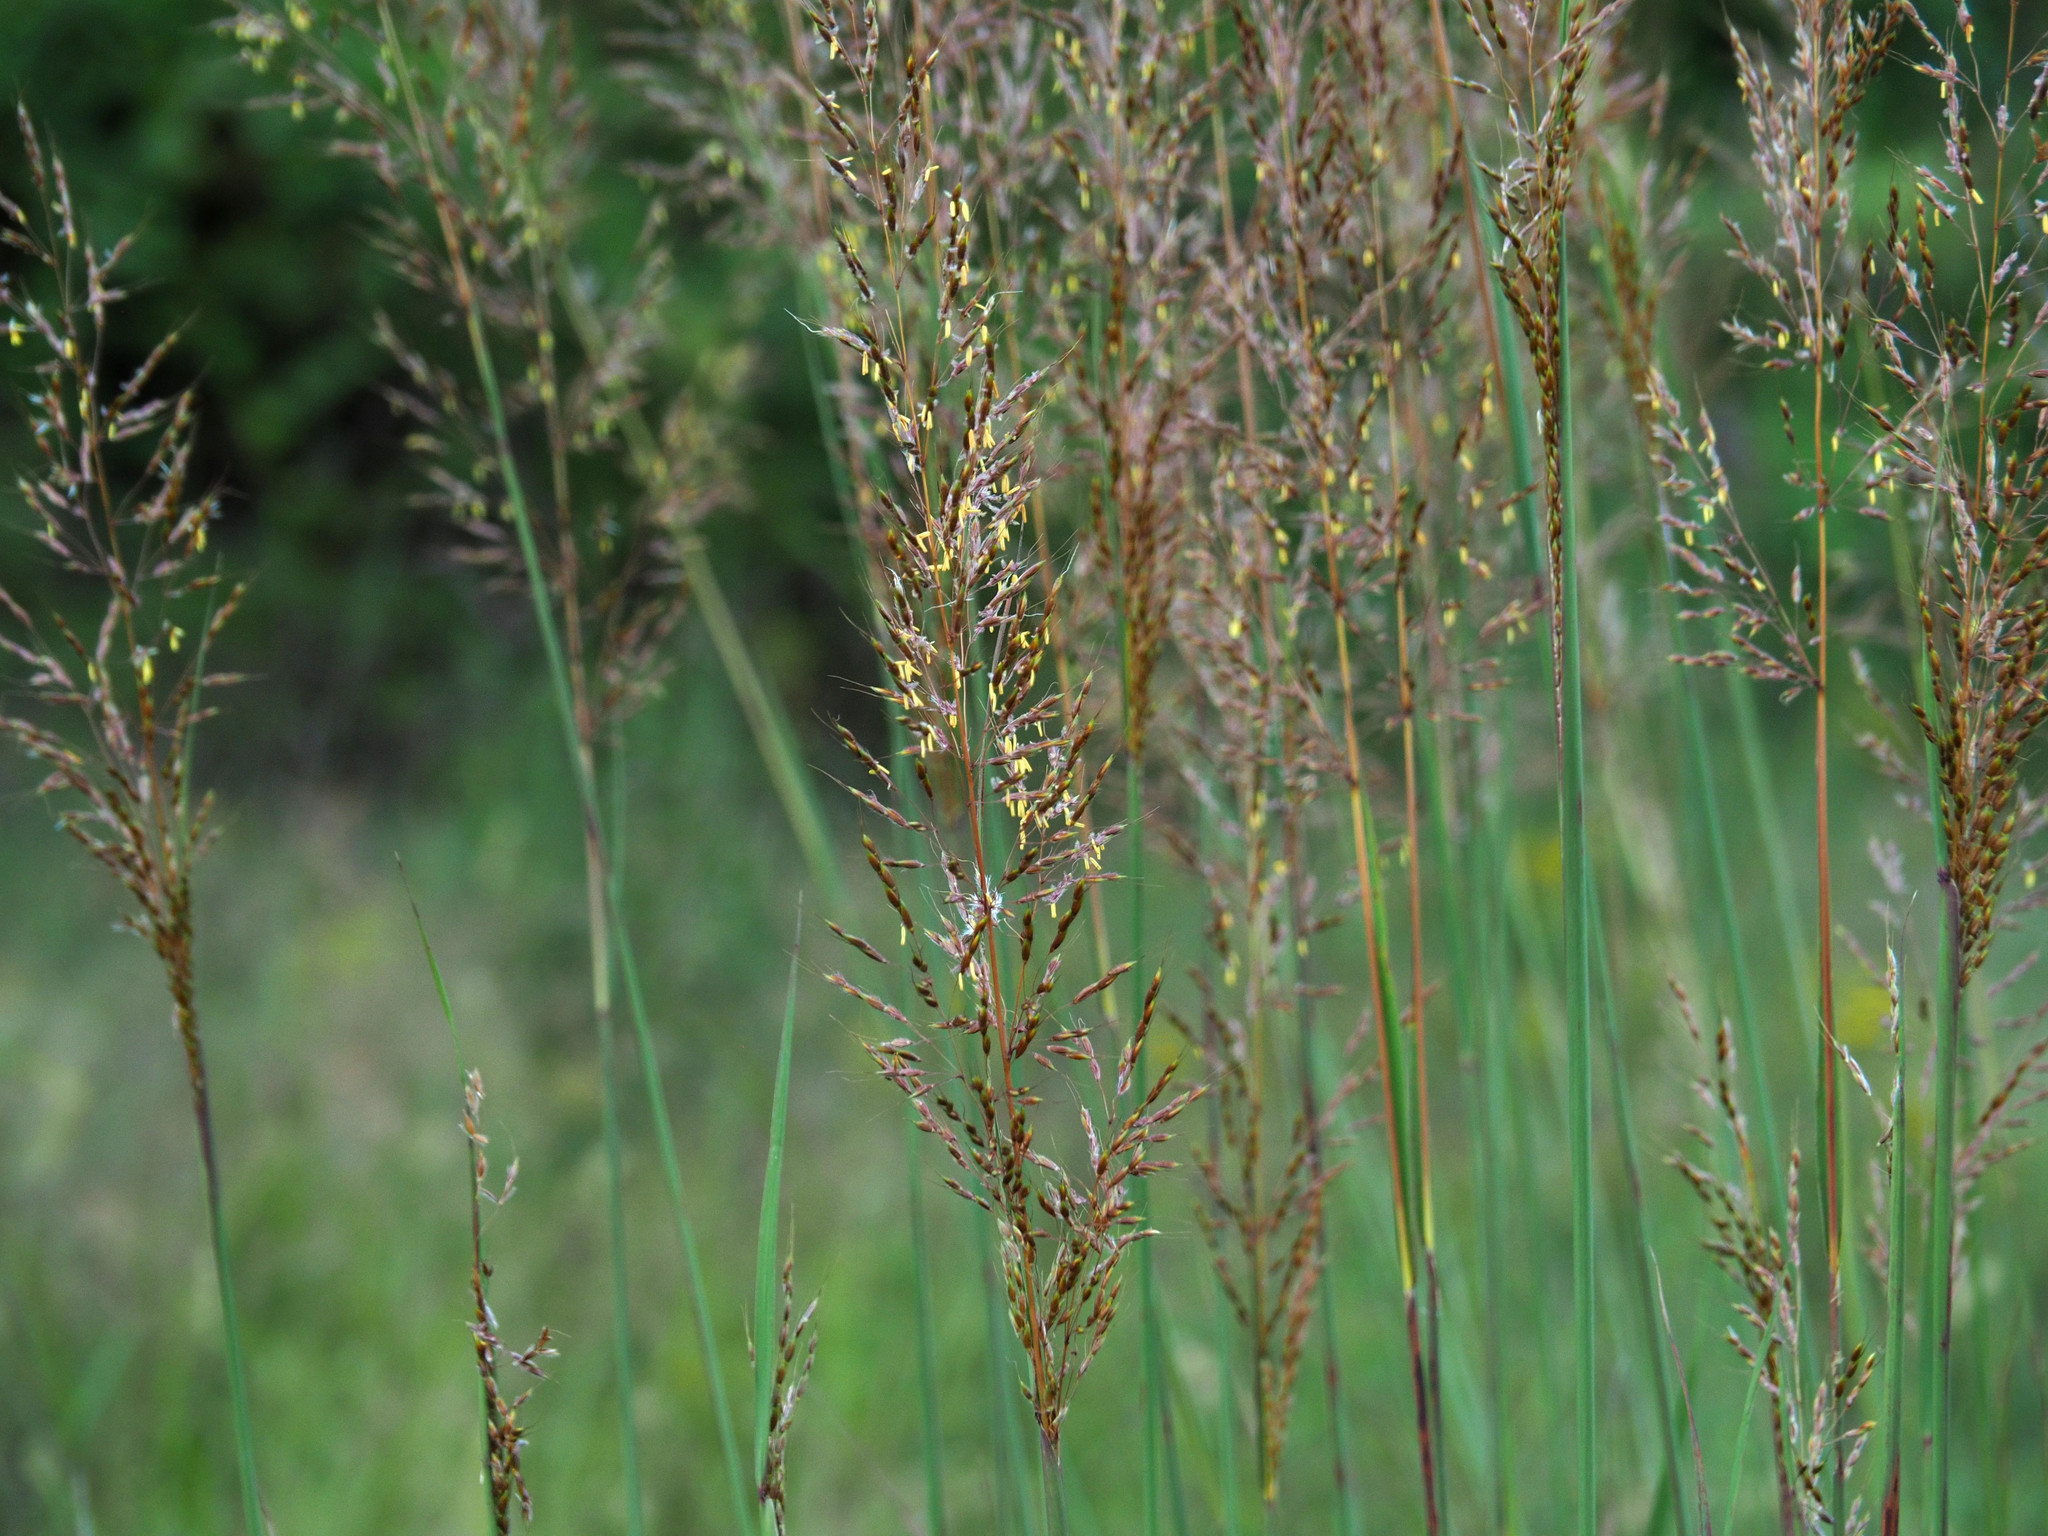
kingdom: Plantae
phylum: Tracheophyta
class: Liliopsida
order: Poales
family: Poaceae
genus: Sorghastrum
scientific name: Sorghastrum nutans
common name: Indian grass
